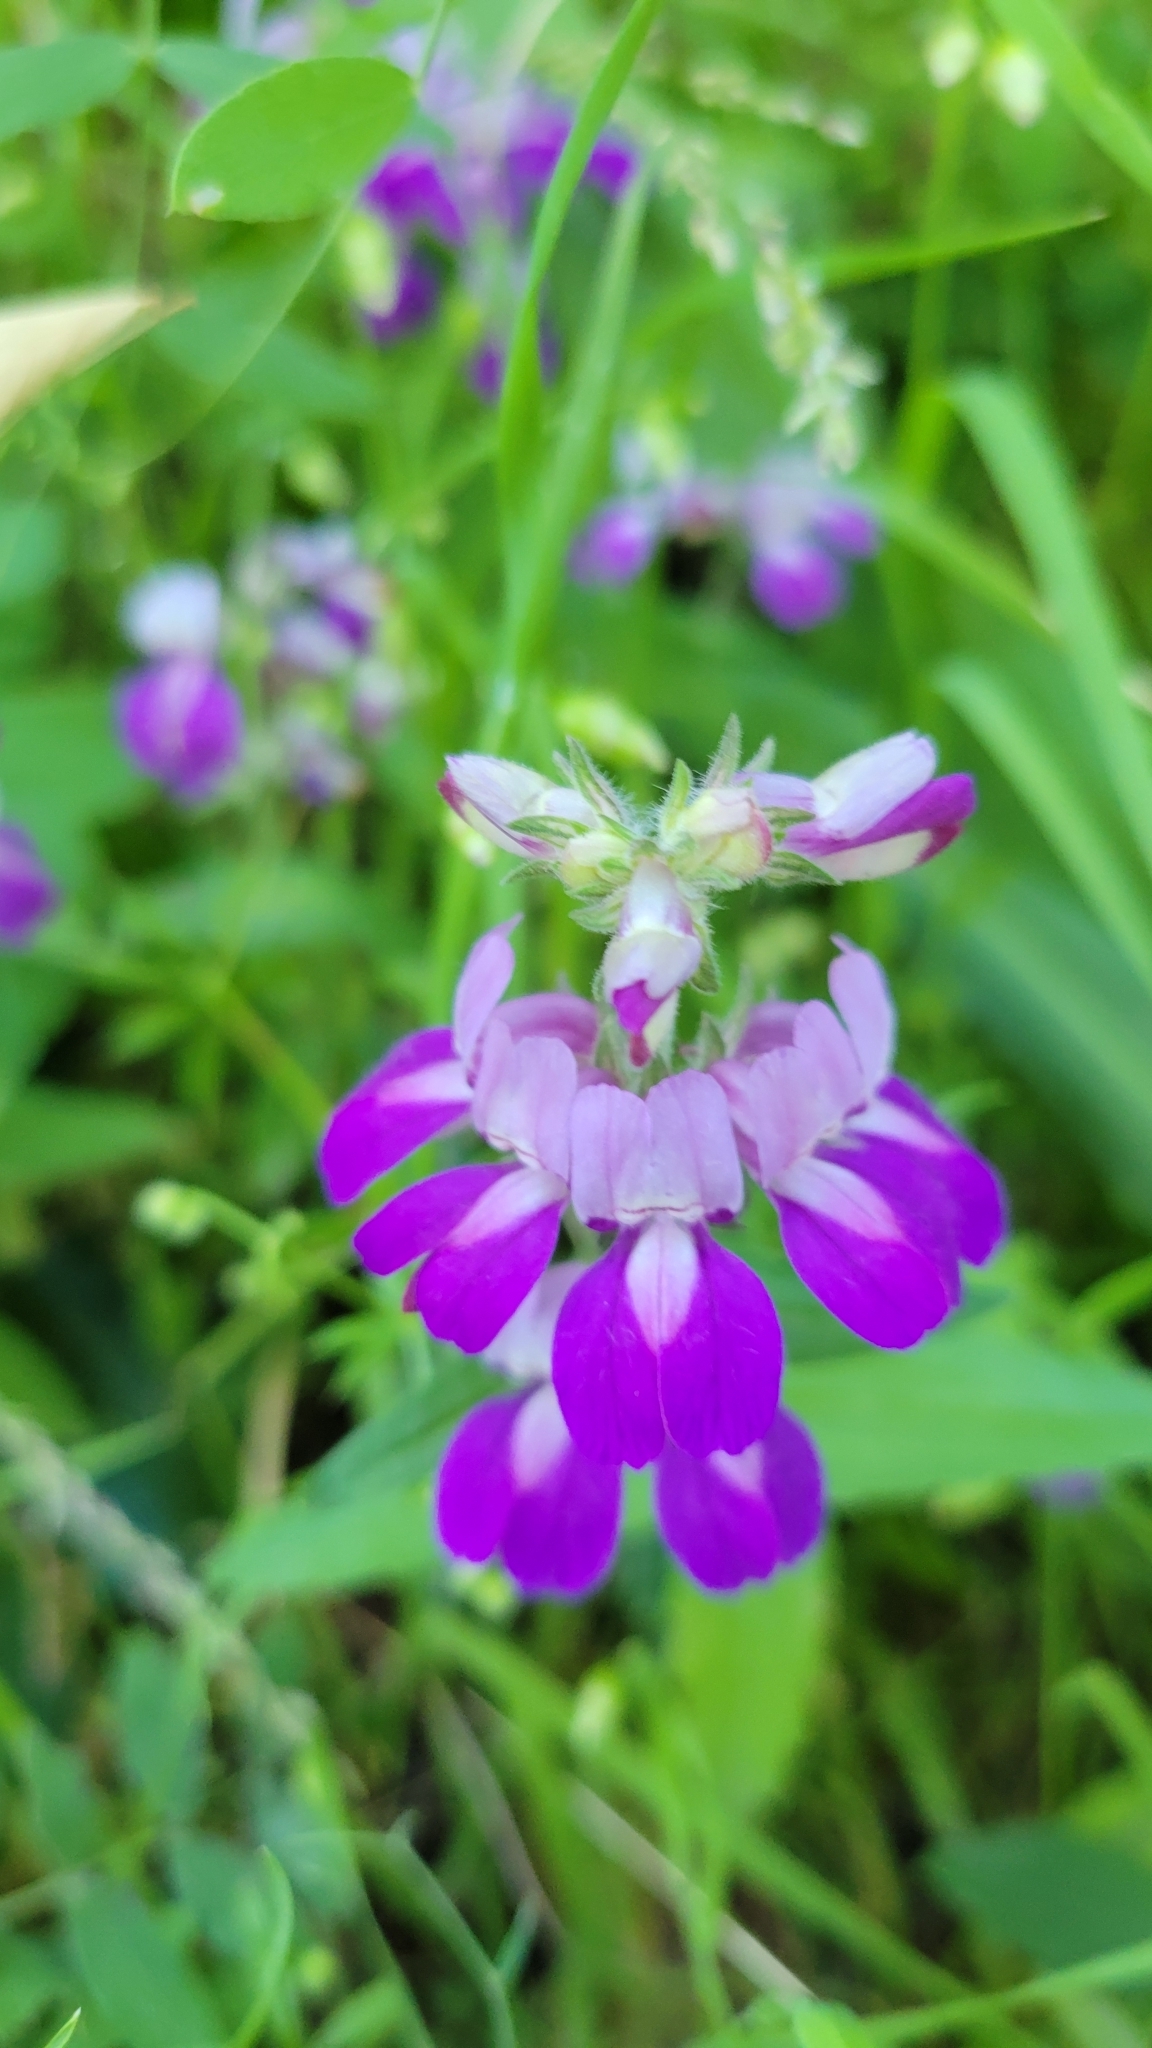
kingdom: Plantae
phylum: Tracheophyta
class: Magnoliopsida
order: Lamiales
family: Plantaginaceae
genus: Collinsia
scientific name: Collinsia heterophylla
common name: Chinese-houses
